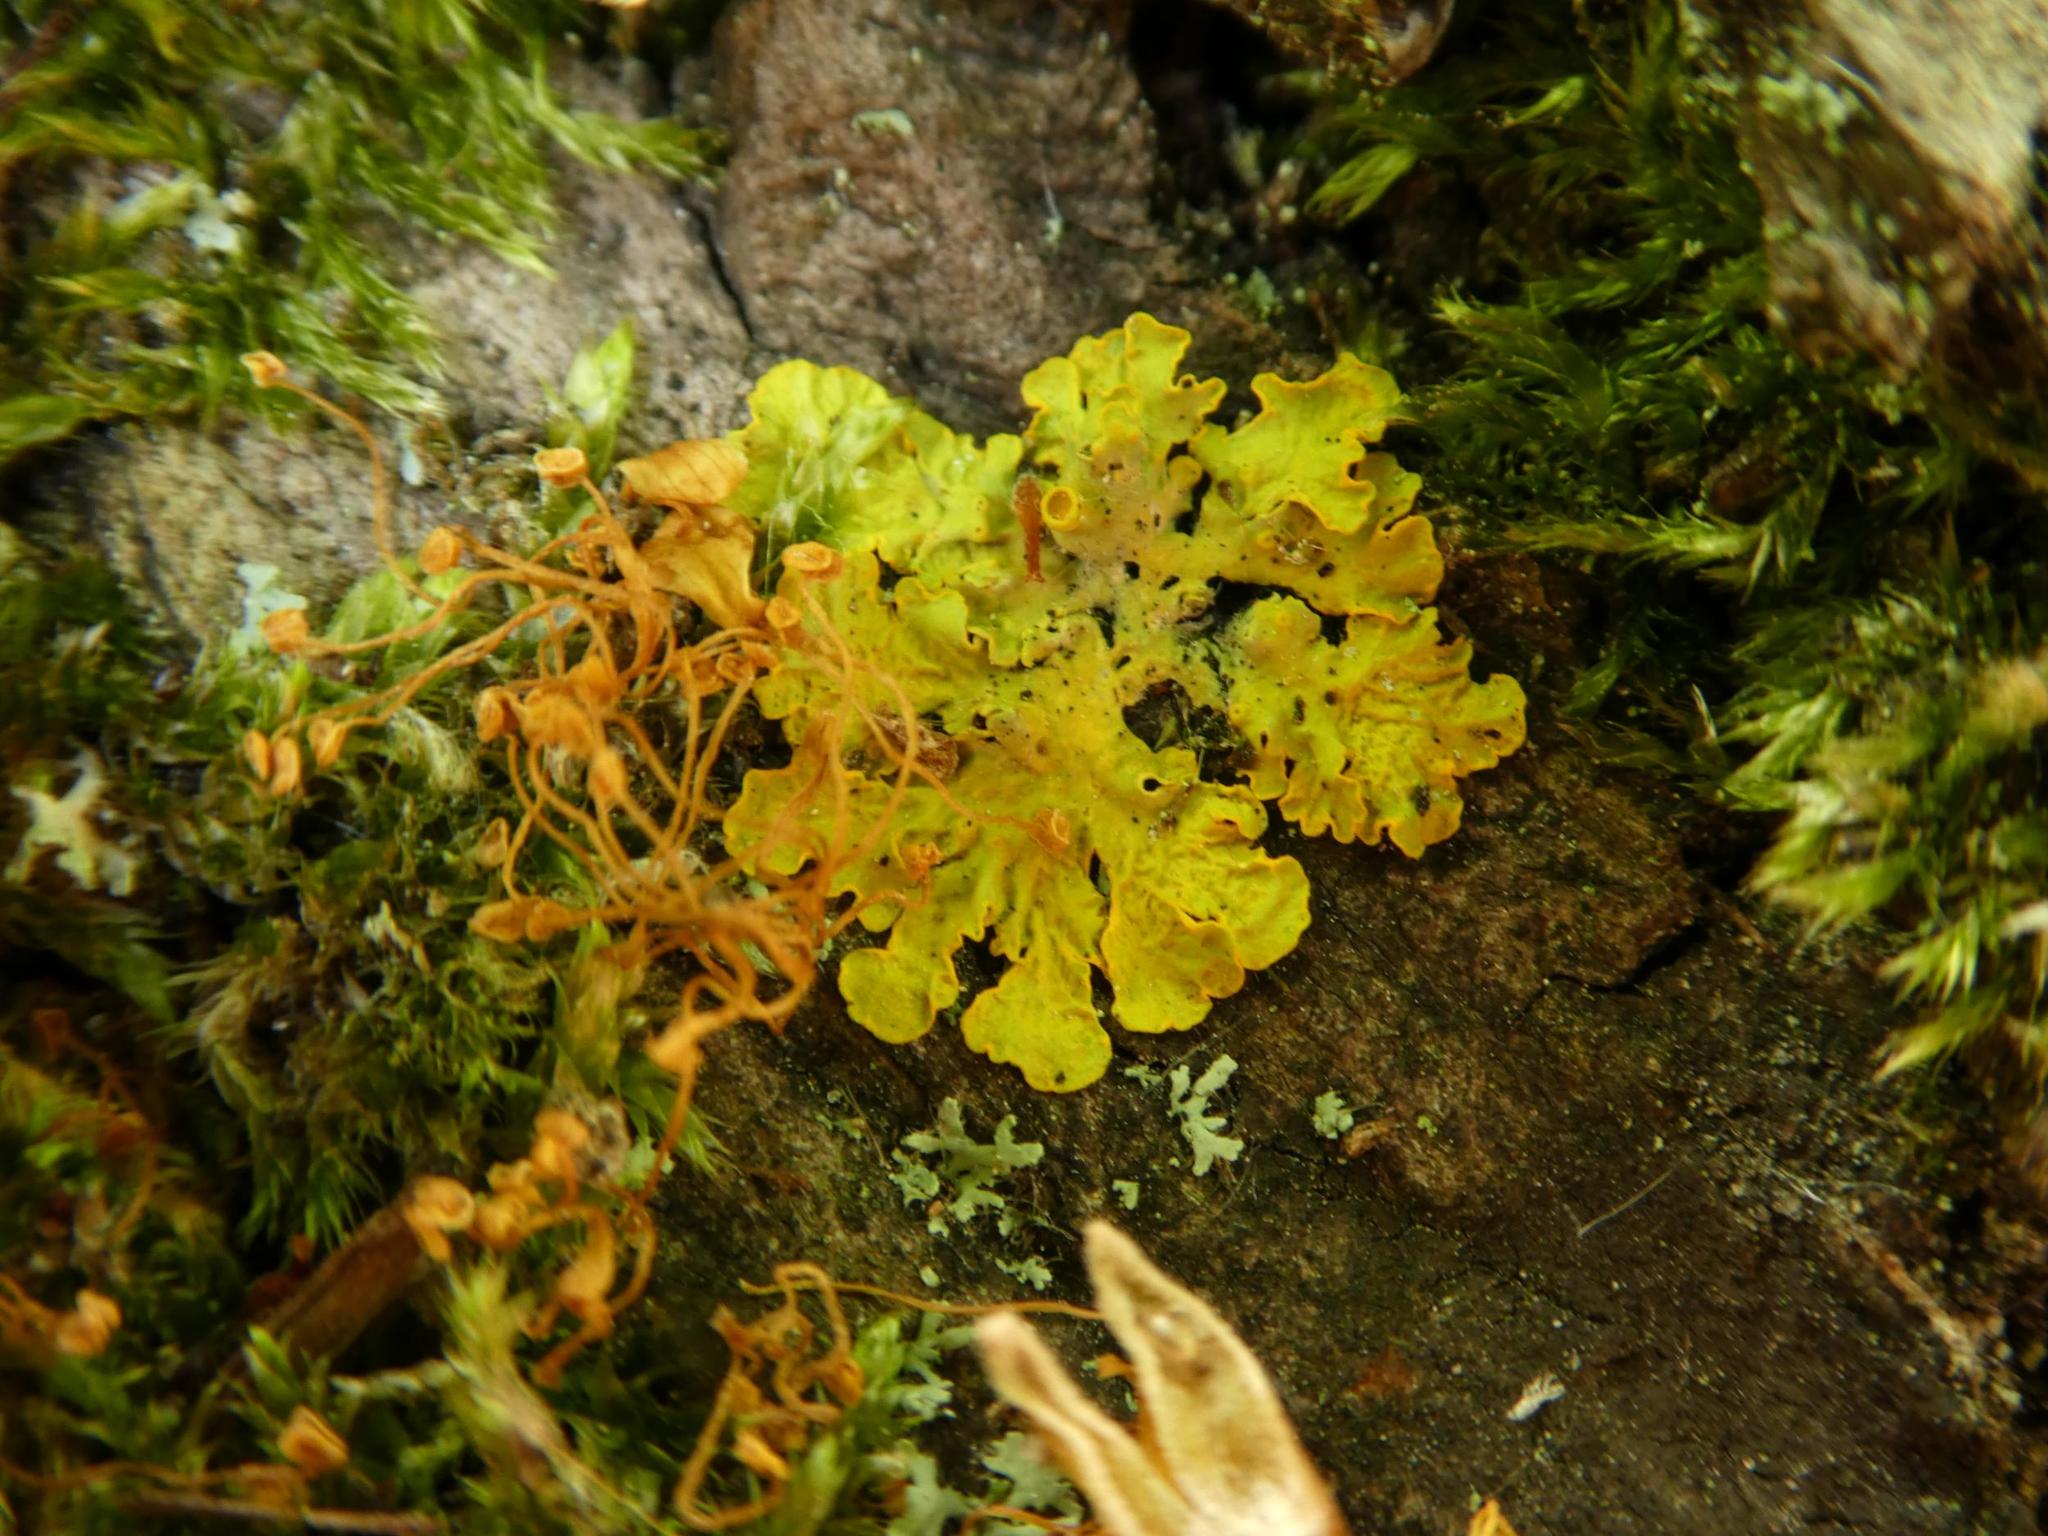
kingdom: Fungi
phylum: Ascomycota
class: Lecanoromycetes
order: Teloschistales
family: Teloschistaceae
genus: Xanthoria
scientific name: Xanthoria parietina
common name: Common orange lichen
